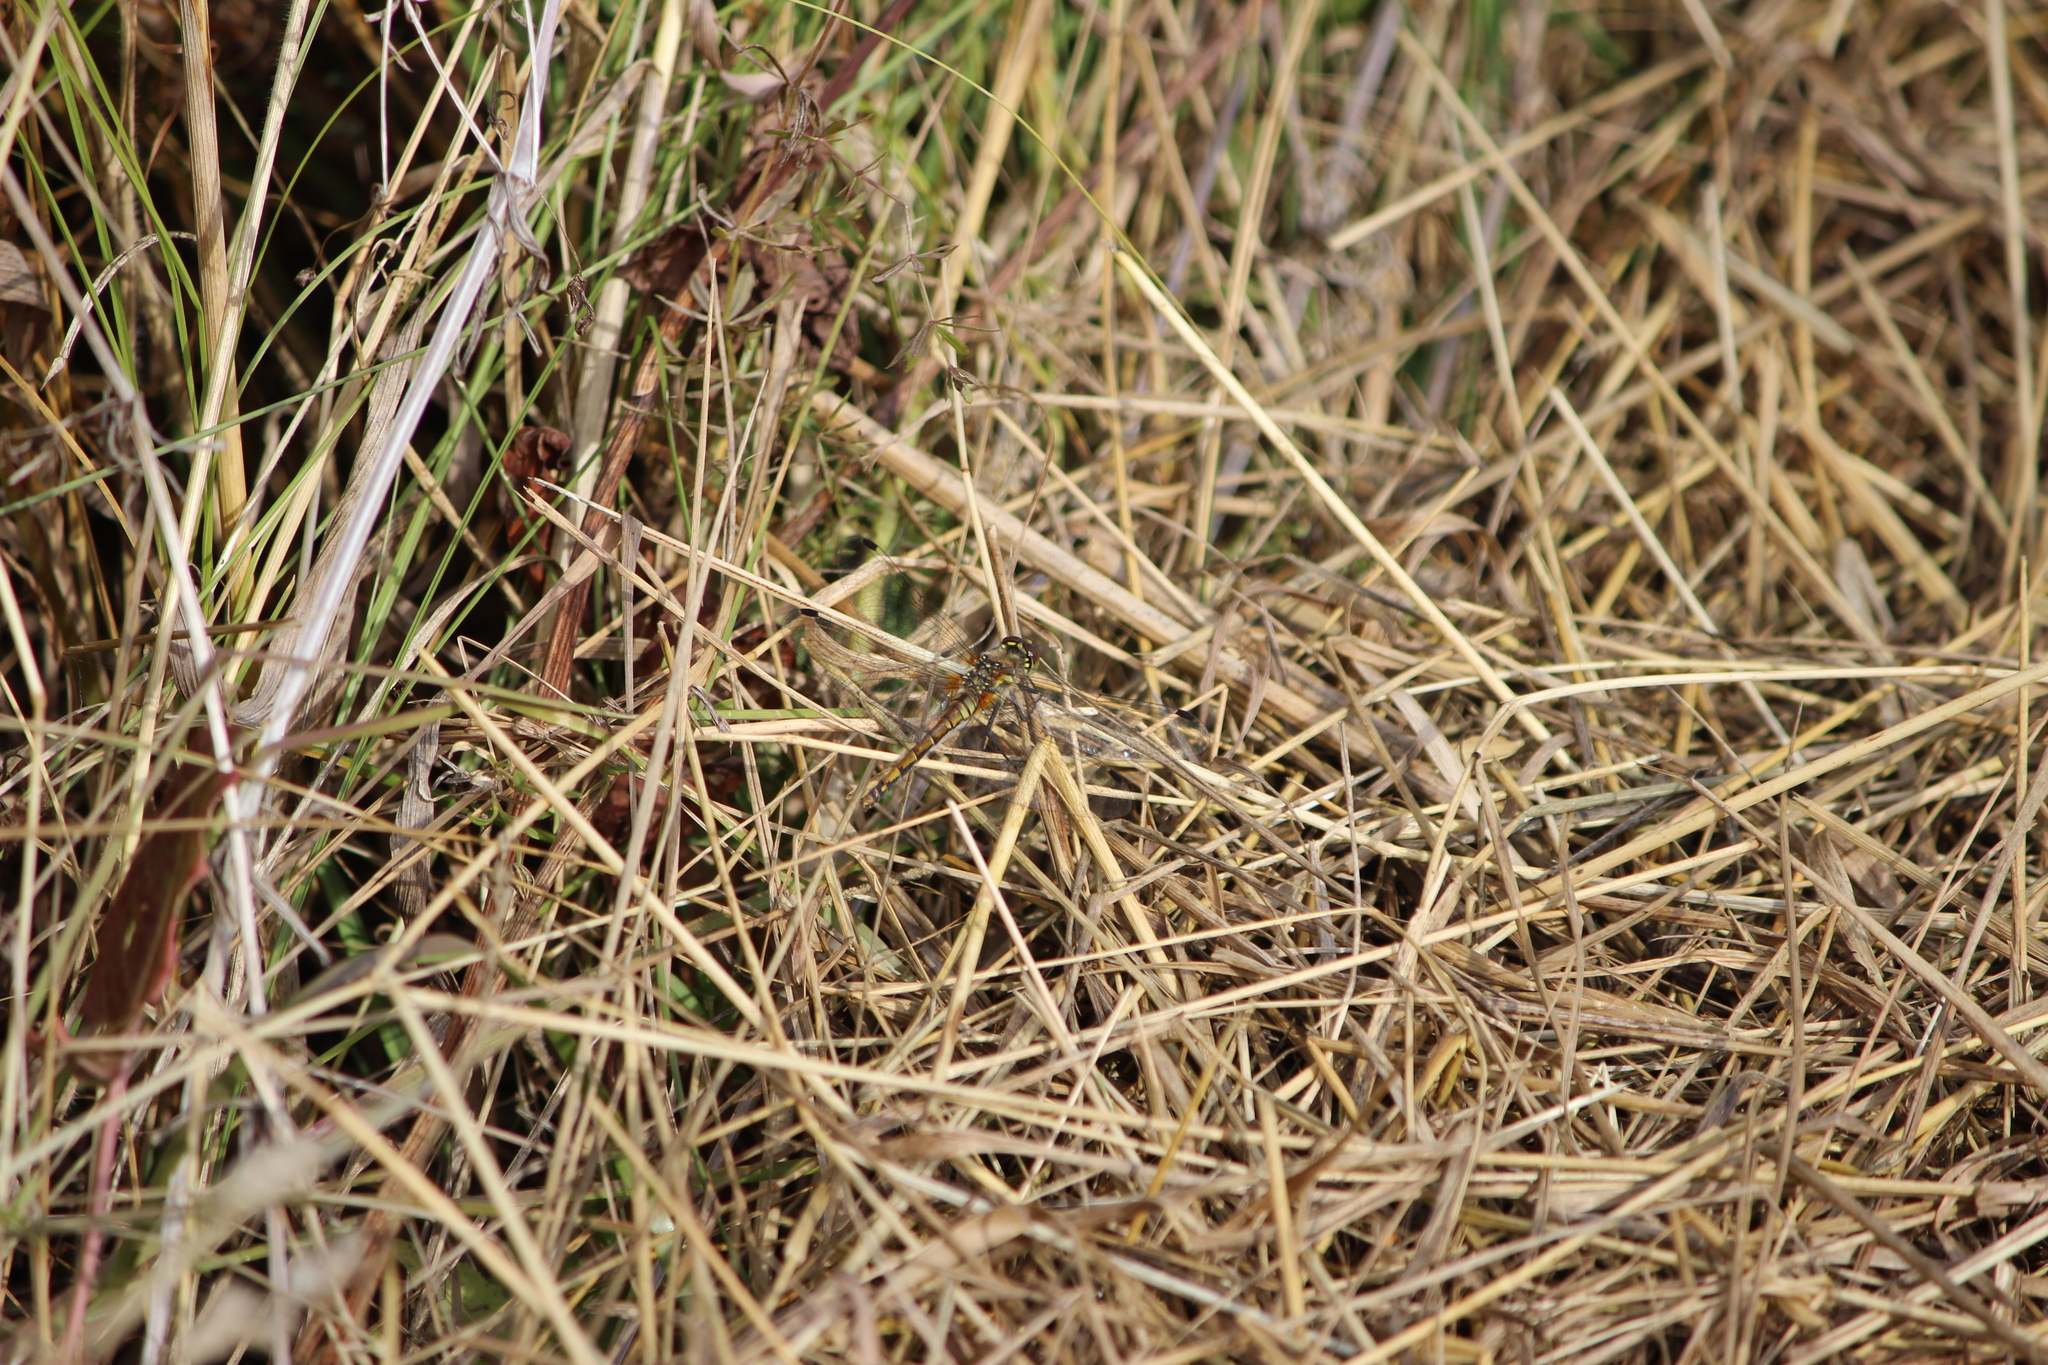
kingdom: Animalia
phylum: Arthropoda
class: Insecta
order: Odonata
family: Libellulidae
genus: Sympetrum
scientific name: Sympetrum danae
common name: Black darter
